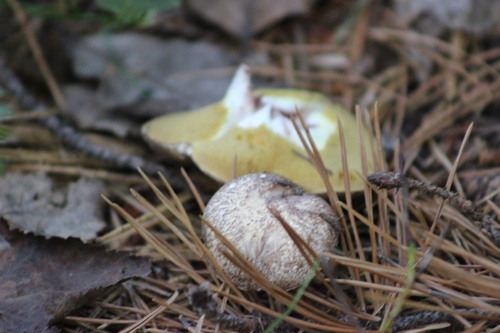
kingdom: Fungi
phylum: Basidiomycota
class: Agaricomycetes
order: Boletales
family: Suillaceae
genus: Suillus
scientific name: Suillus placidus
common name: Slippery white bolete
